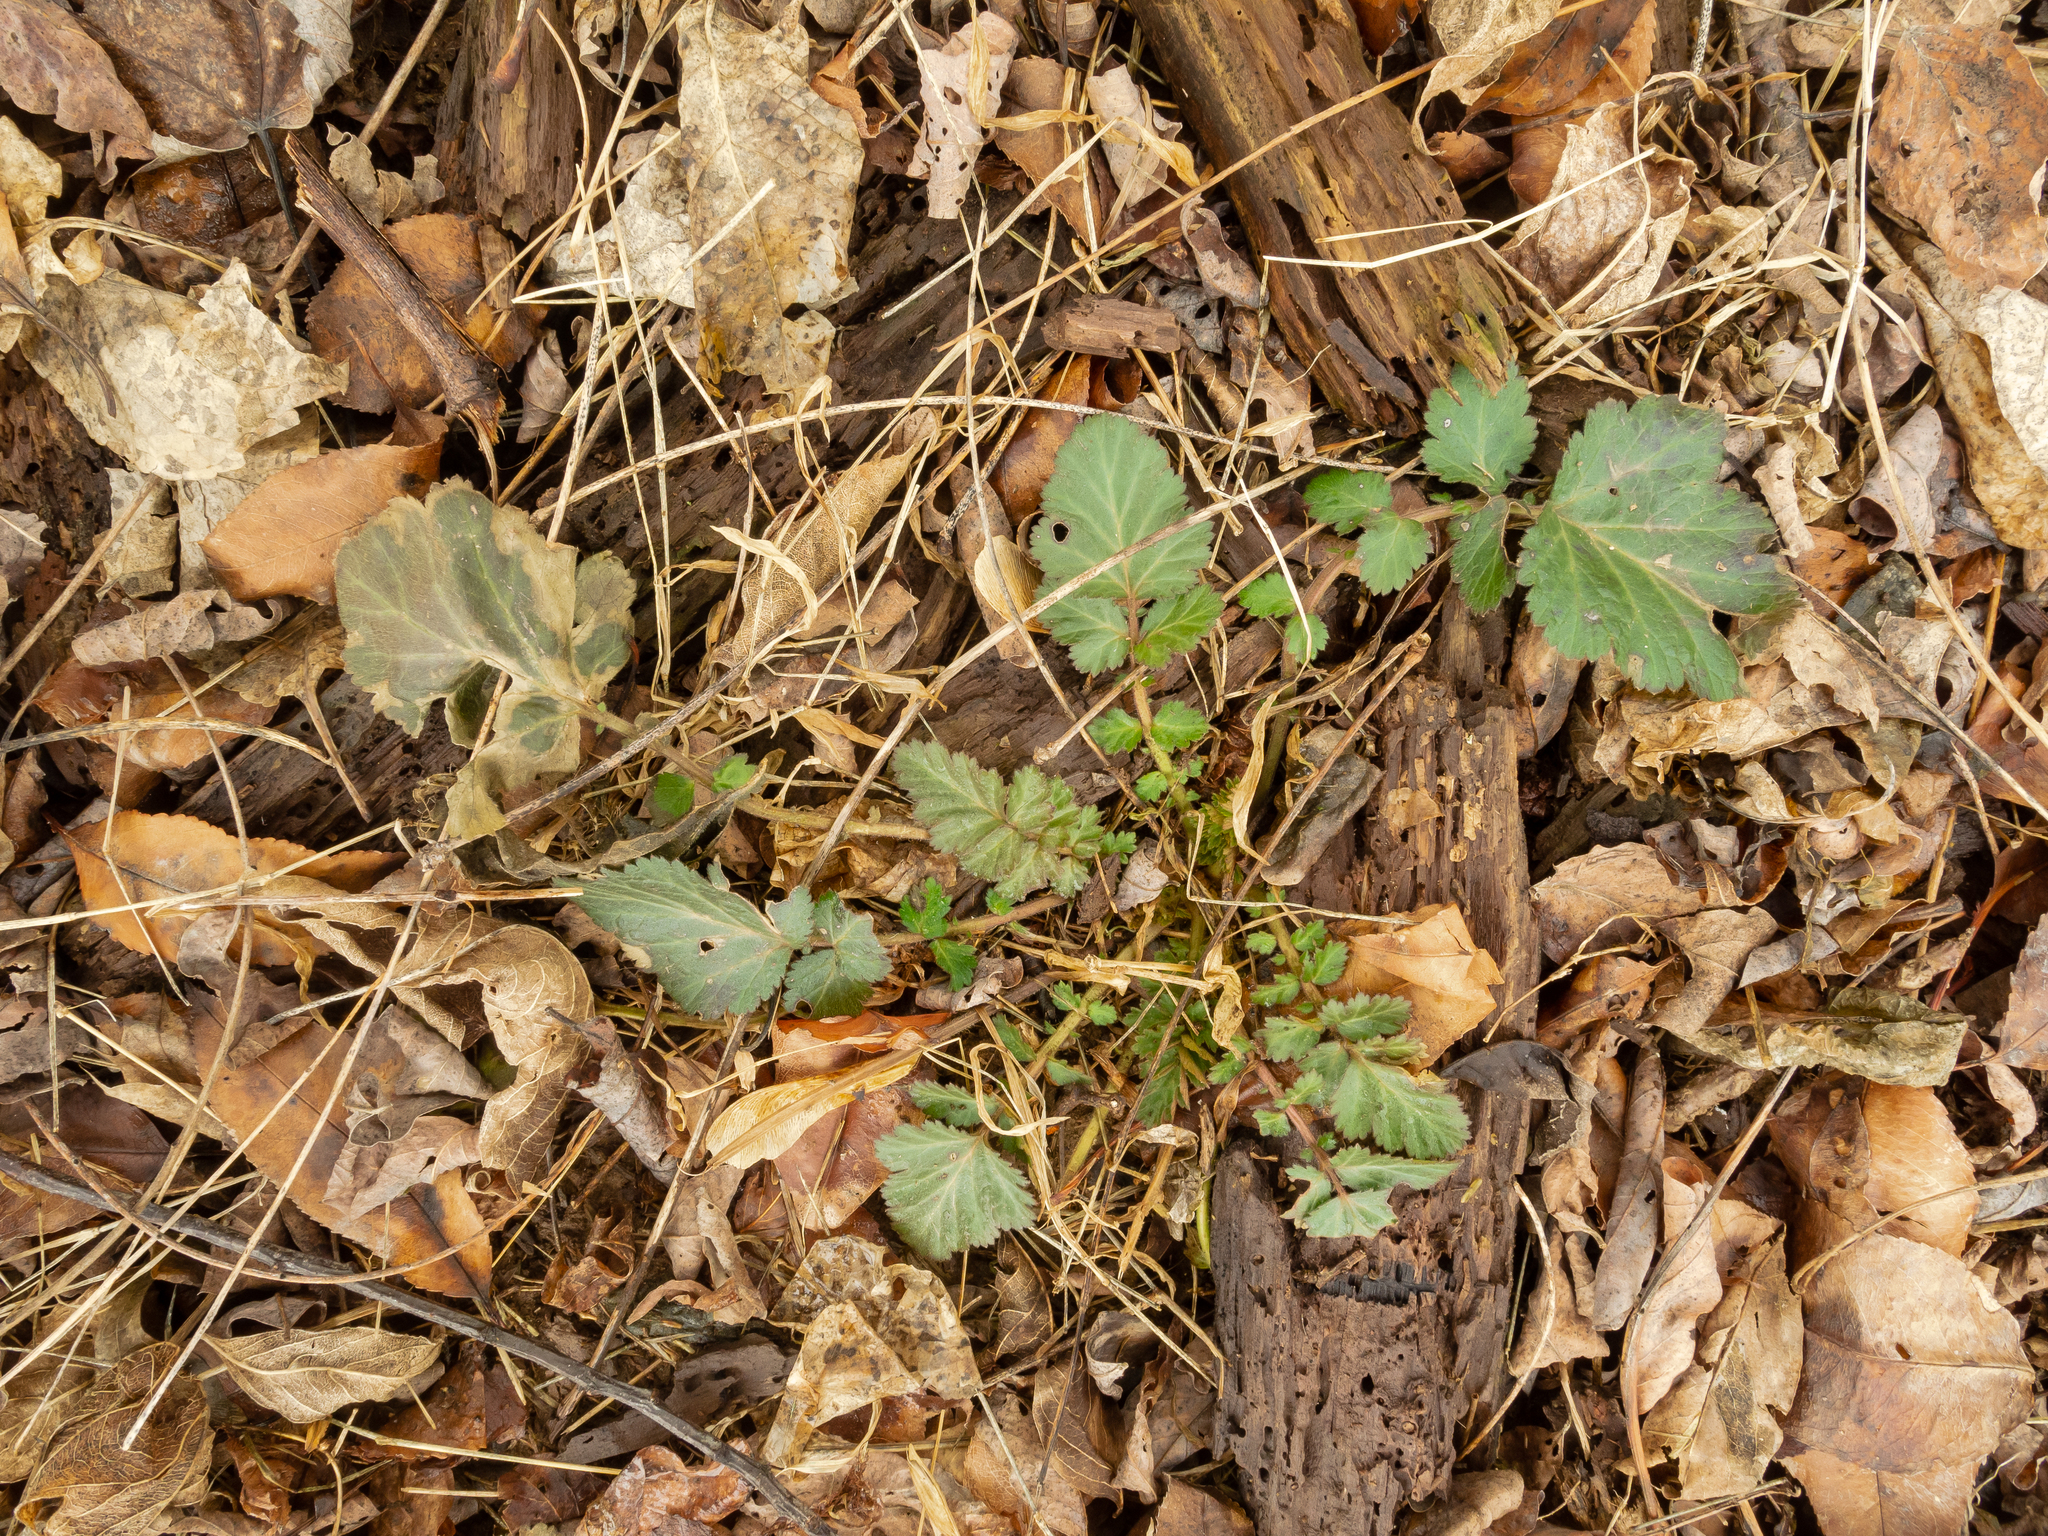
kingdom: Plantae
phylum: Tracheophyta
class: Magnoliopsida
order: Rosales
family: Rosaceae
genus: Geum
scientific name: Geum canadense
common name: White avens
